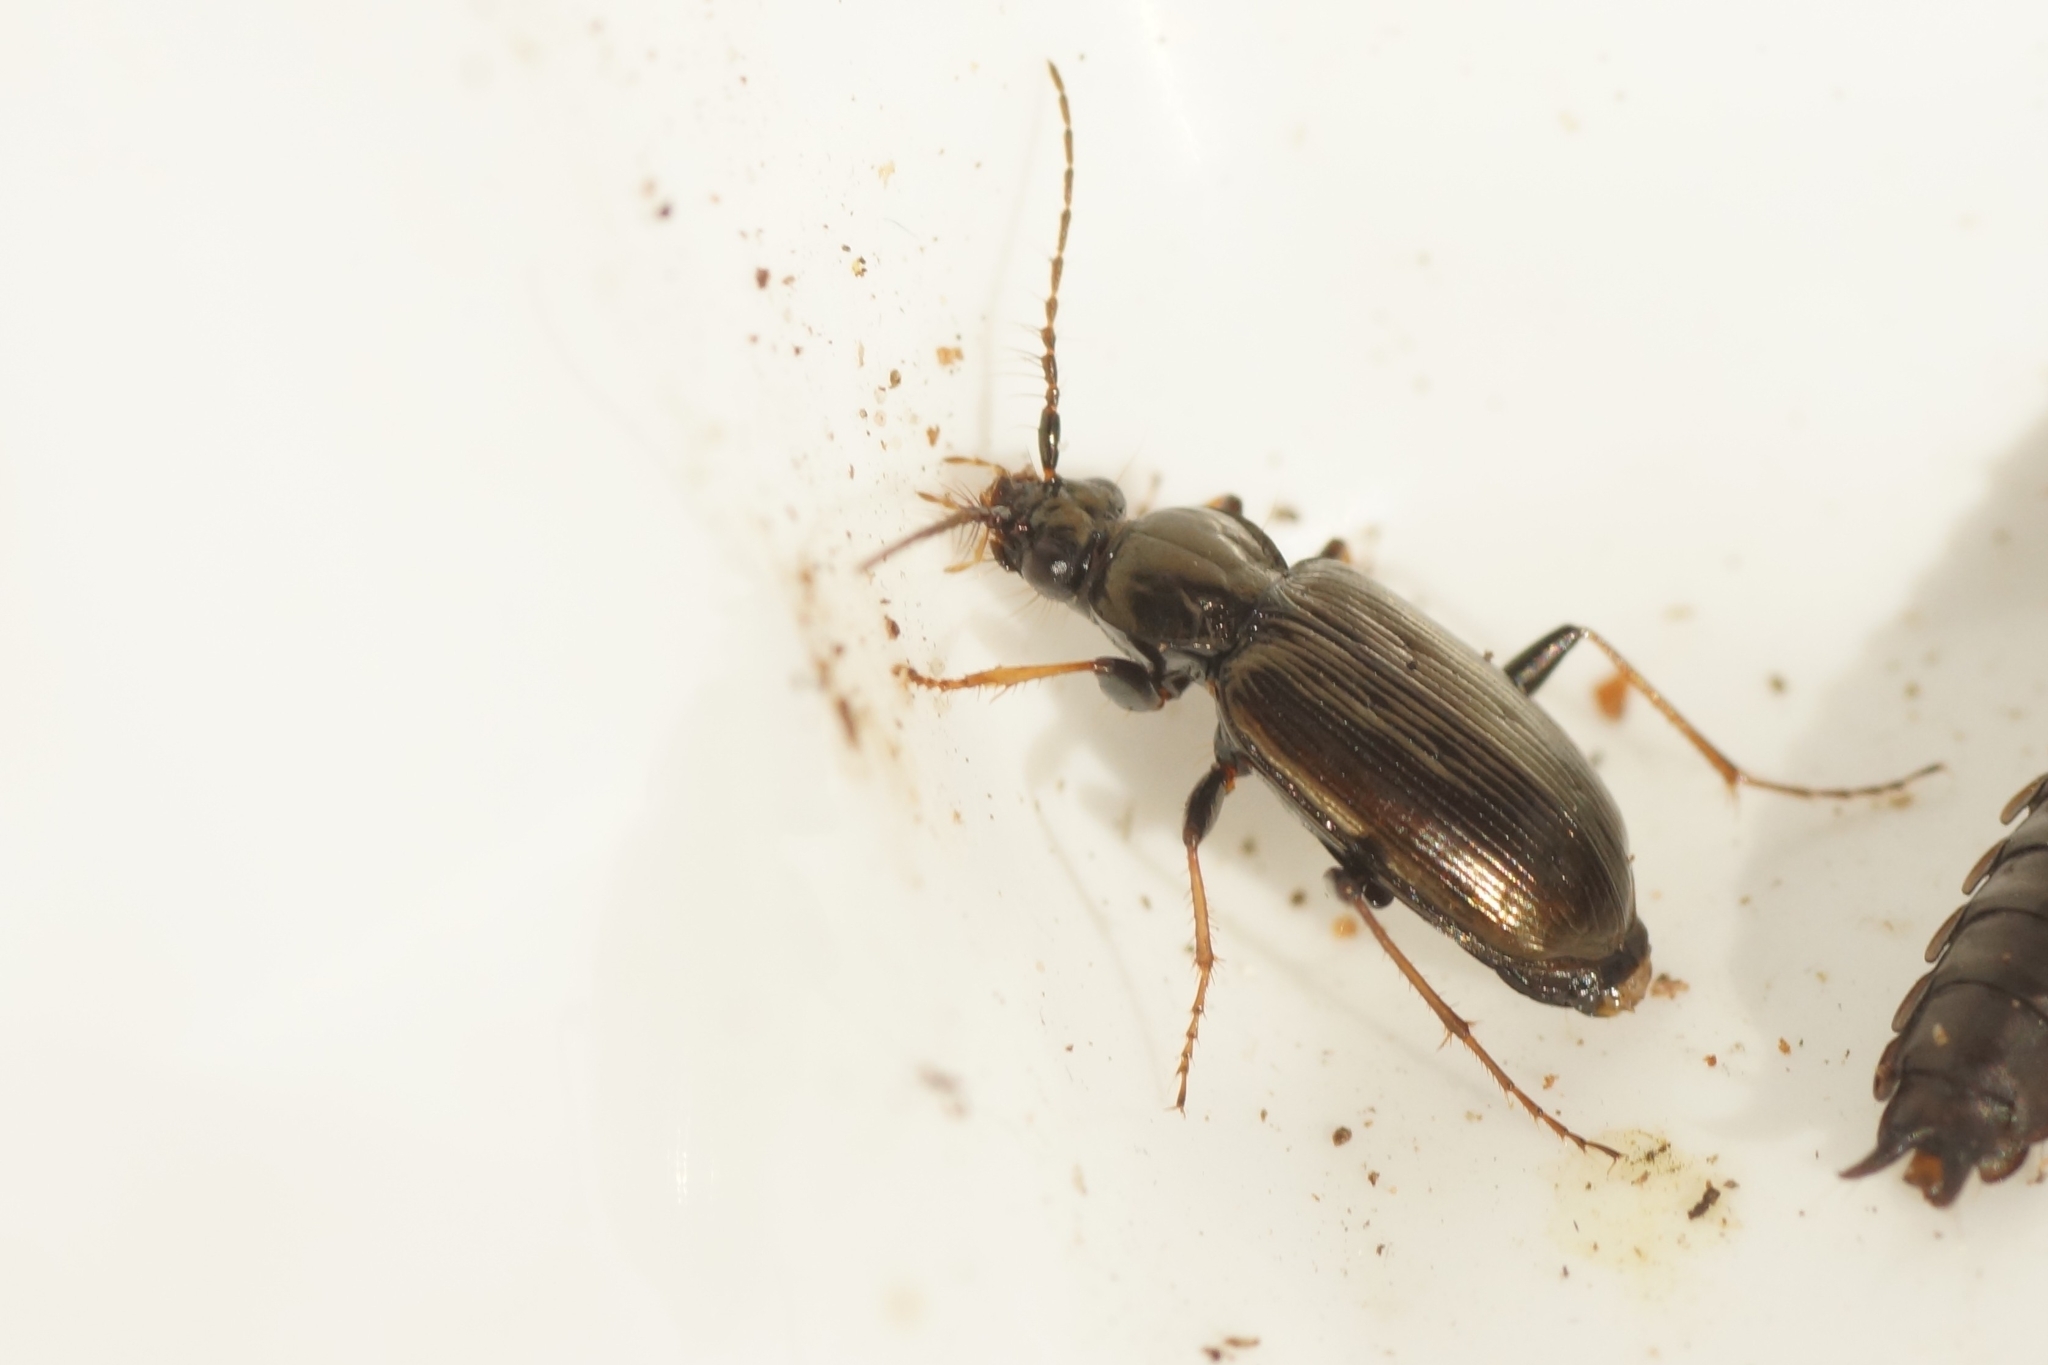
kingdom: Animalia
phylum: Arthropoda
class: Insecta
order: Coleoptera
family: Carabidae
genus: Loricera
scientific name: Loricera pilicornis
